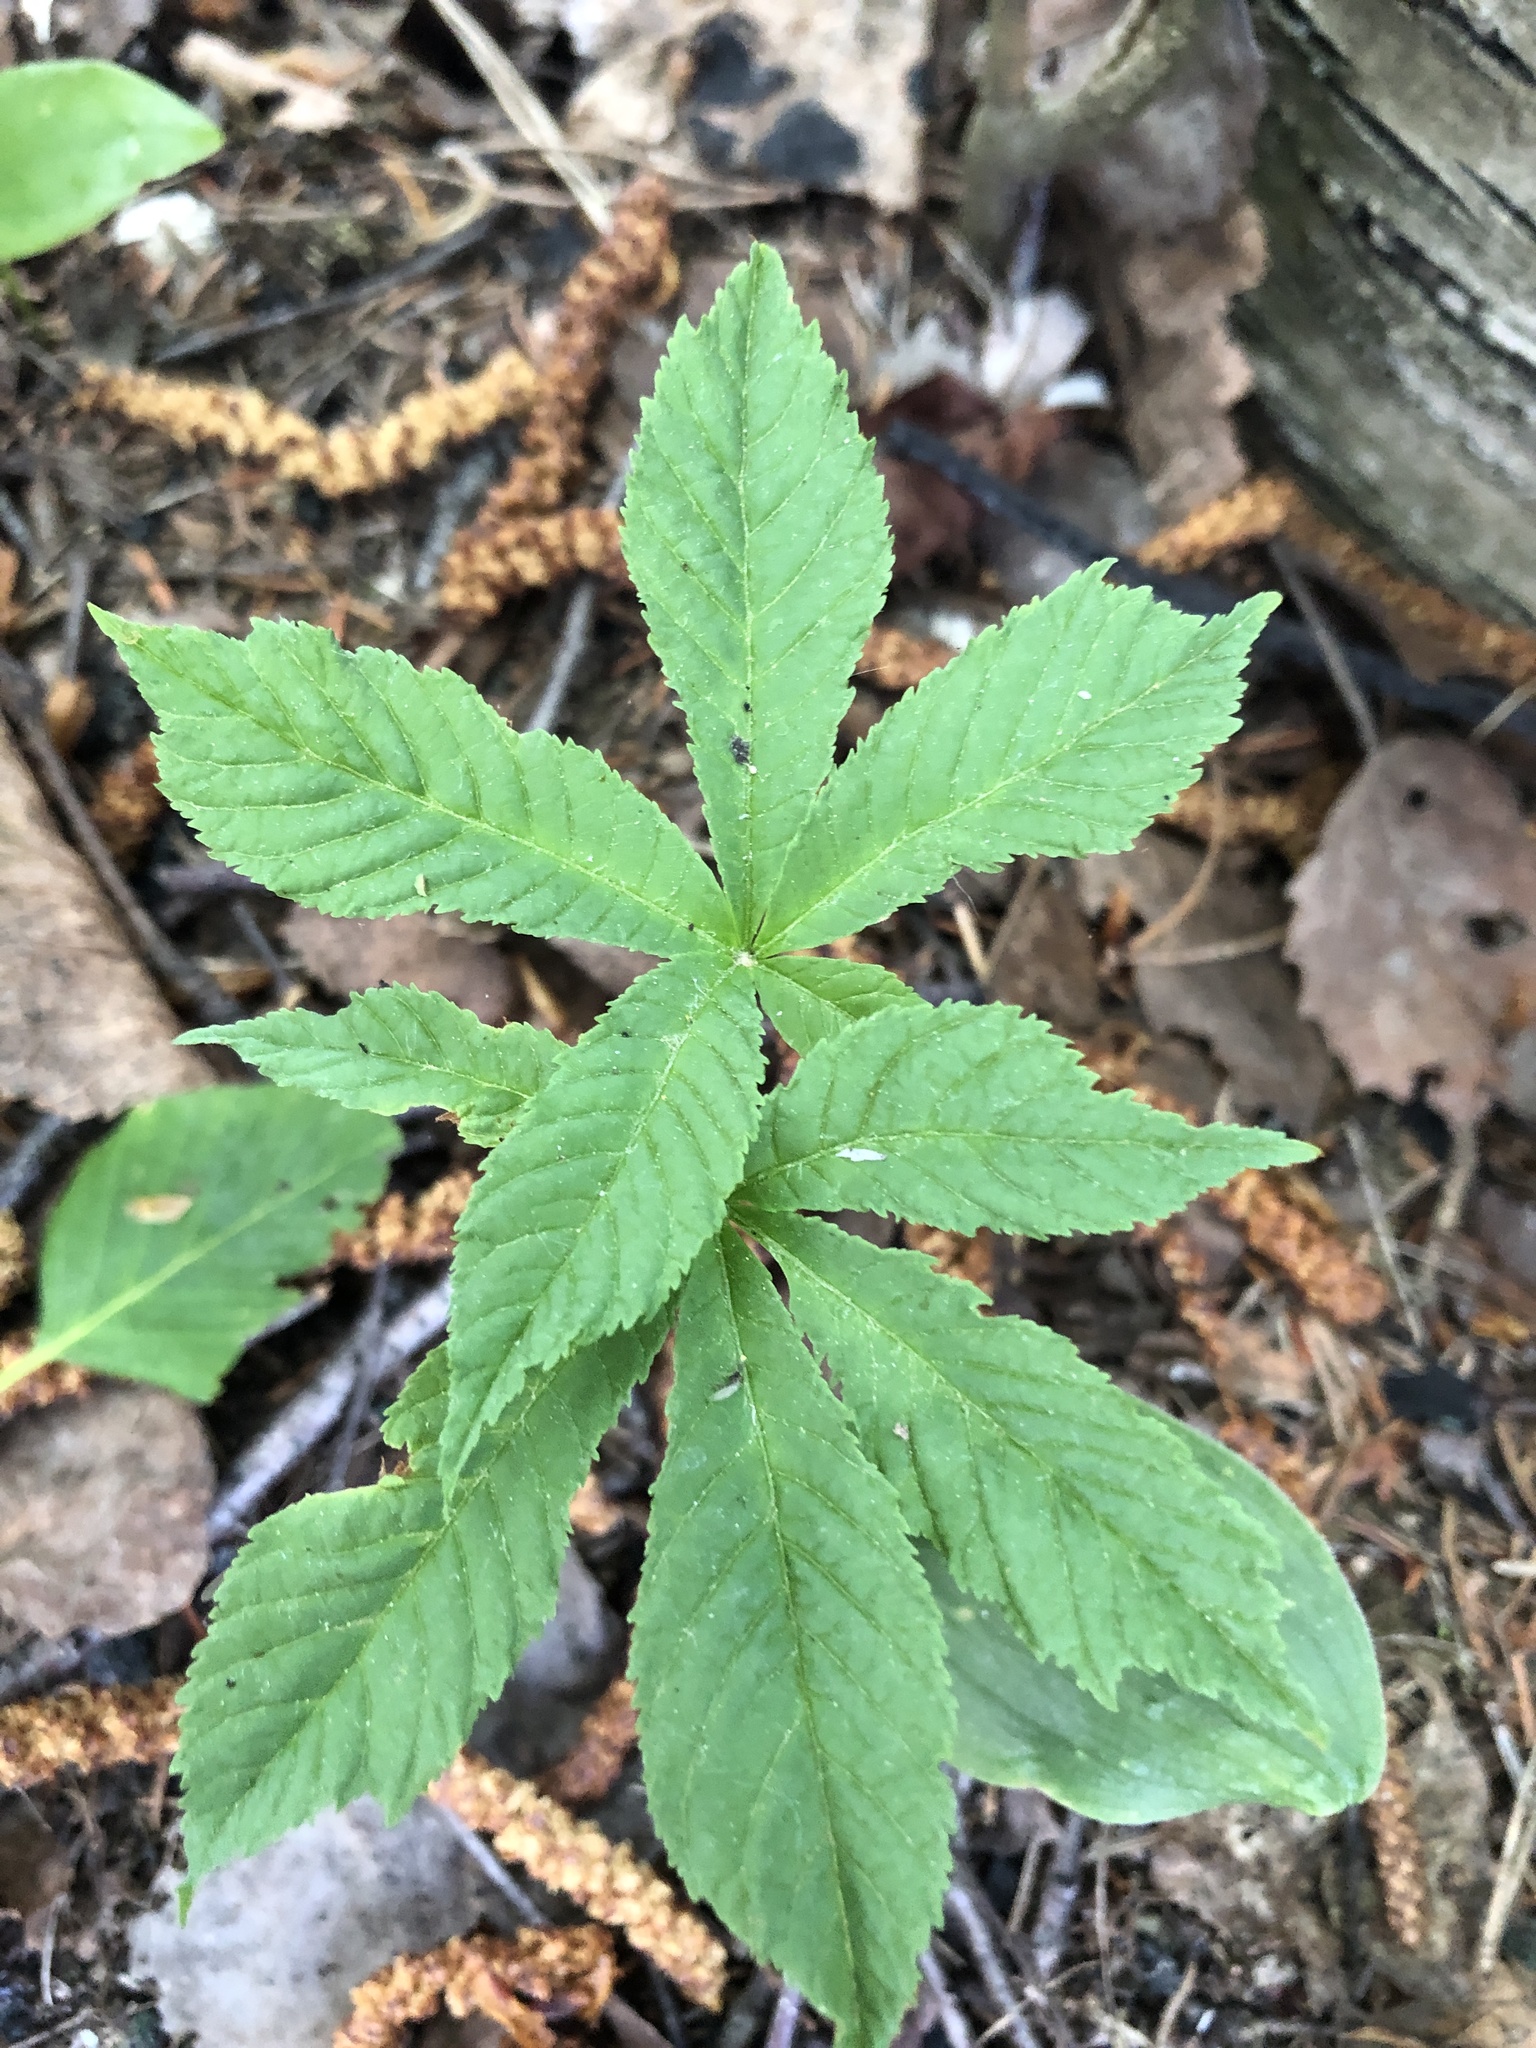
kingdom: Plantae
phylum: Tracheophyta
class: Magnoliopsida
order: Sapindales
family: Sapindaceae
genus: Aesculus
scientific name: Aesculus hippocastanum
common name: Horse-chestnut
